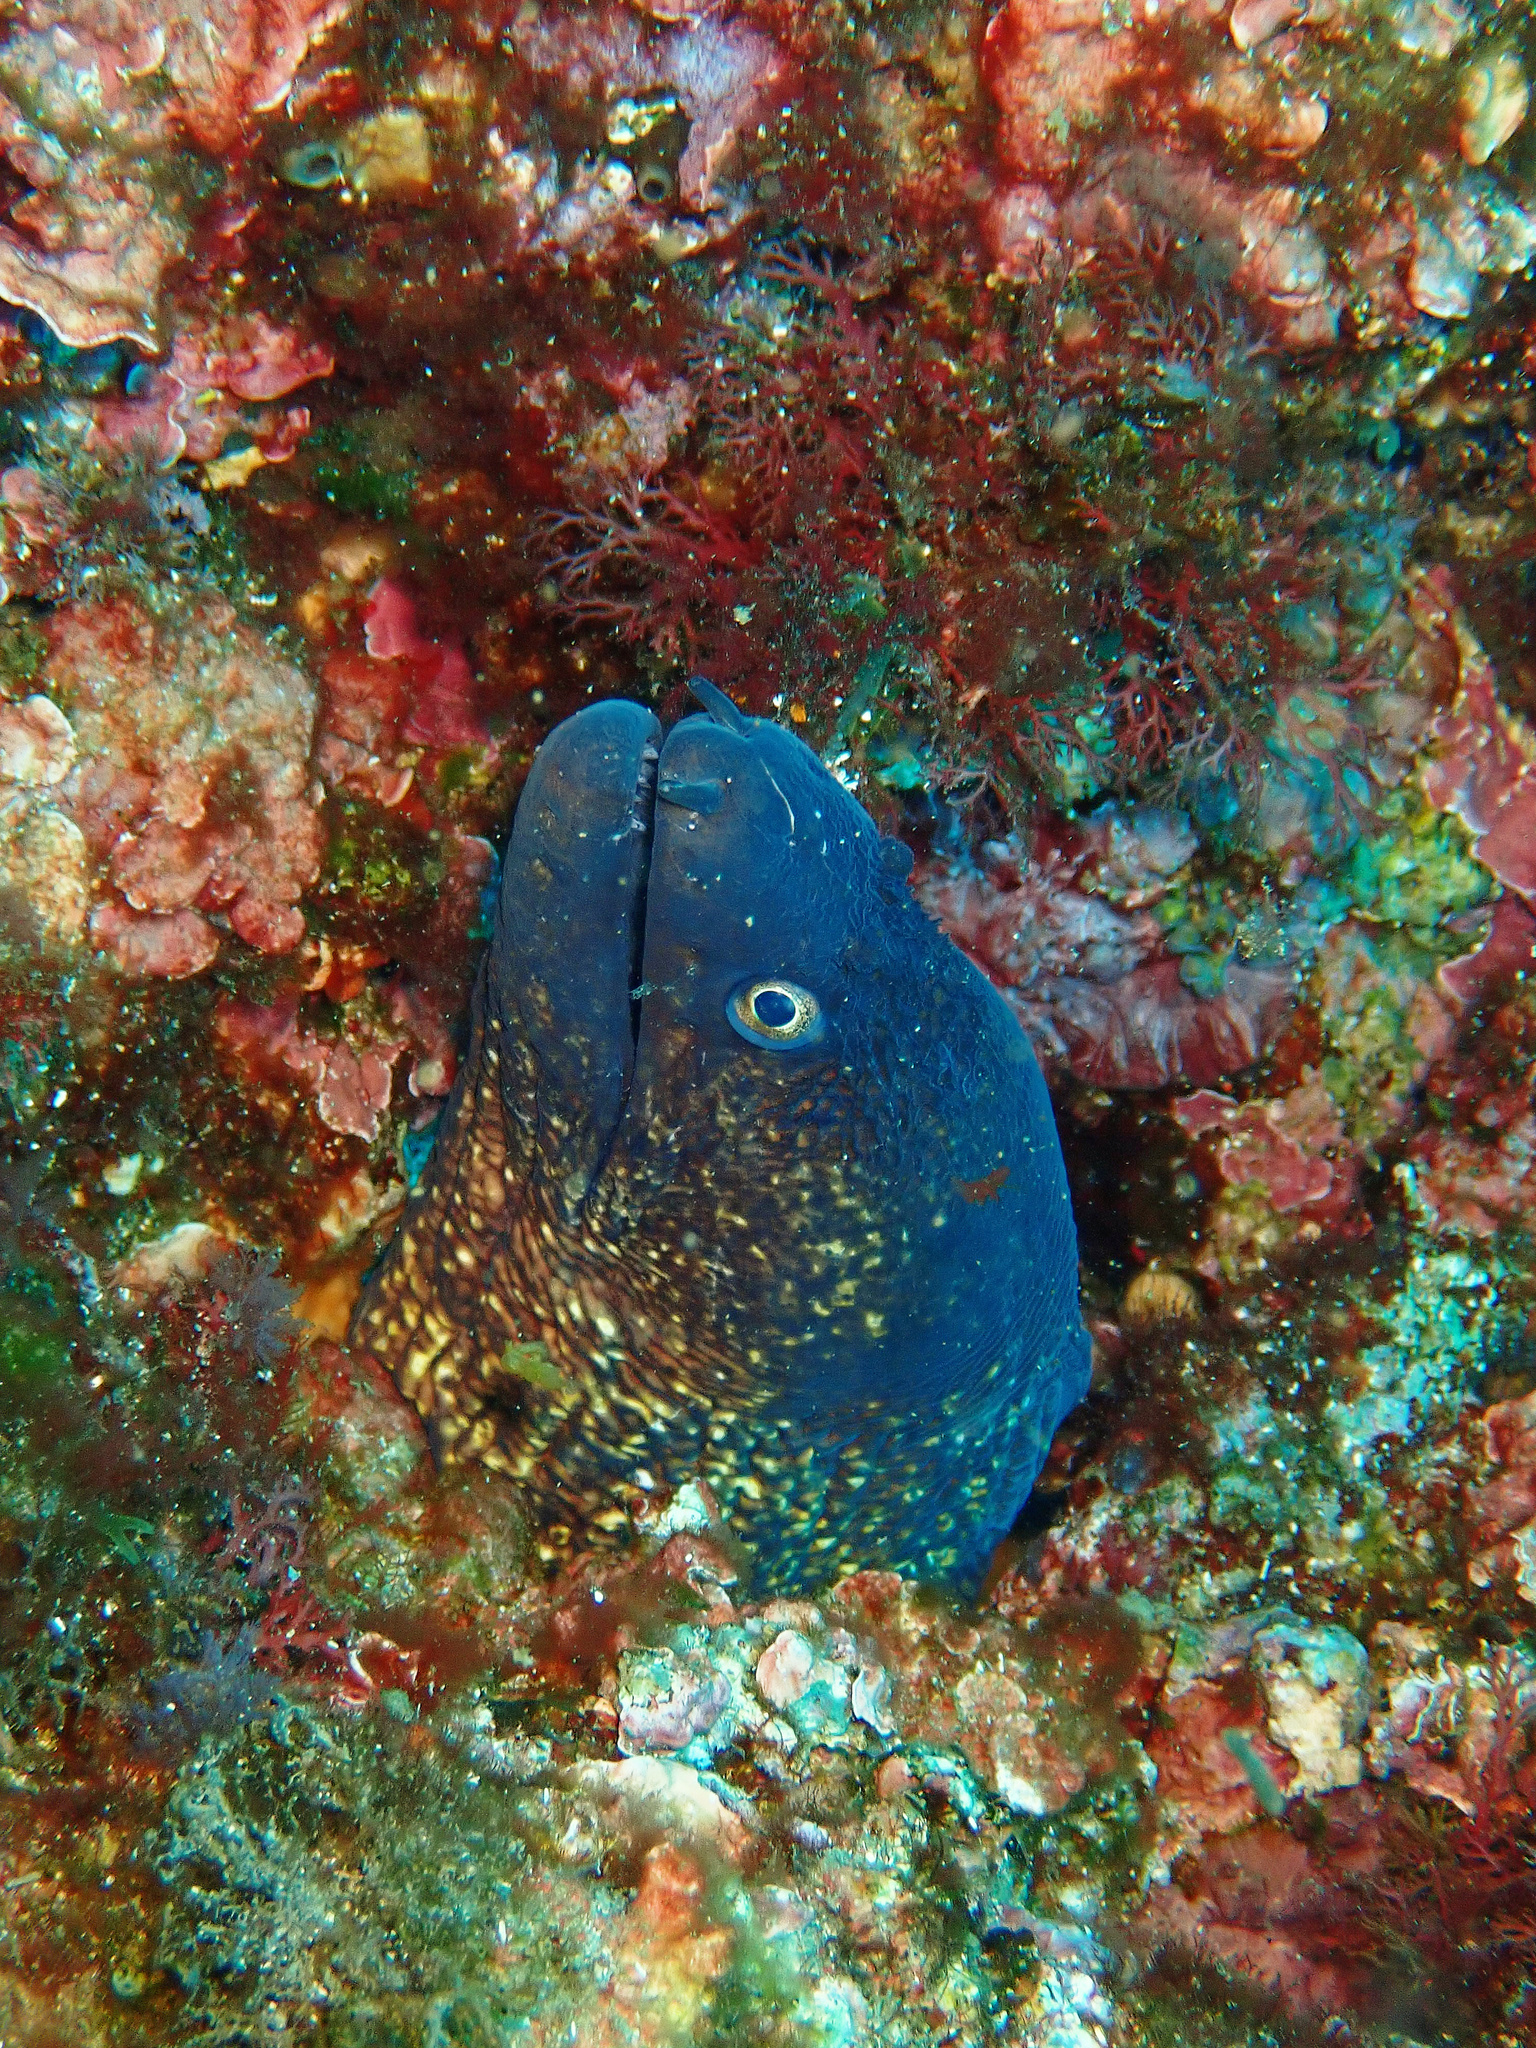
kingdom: Animalia
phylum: Chordata
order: Anguilliformes
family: Muraenidae
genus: Muraena
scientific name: Muraena helena
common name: Mediterranean moray
